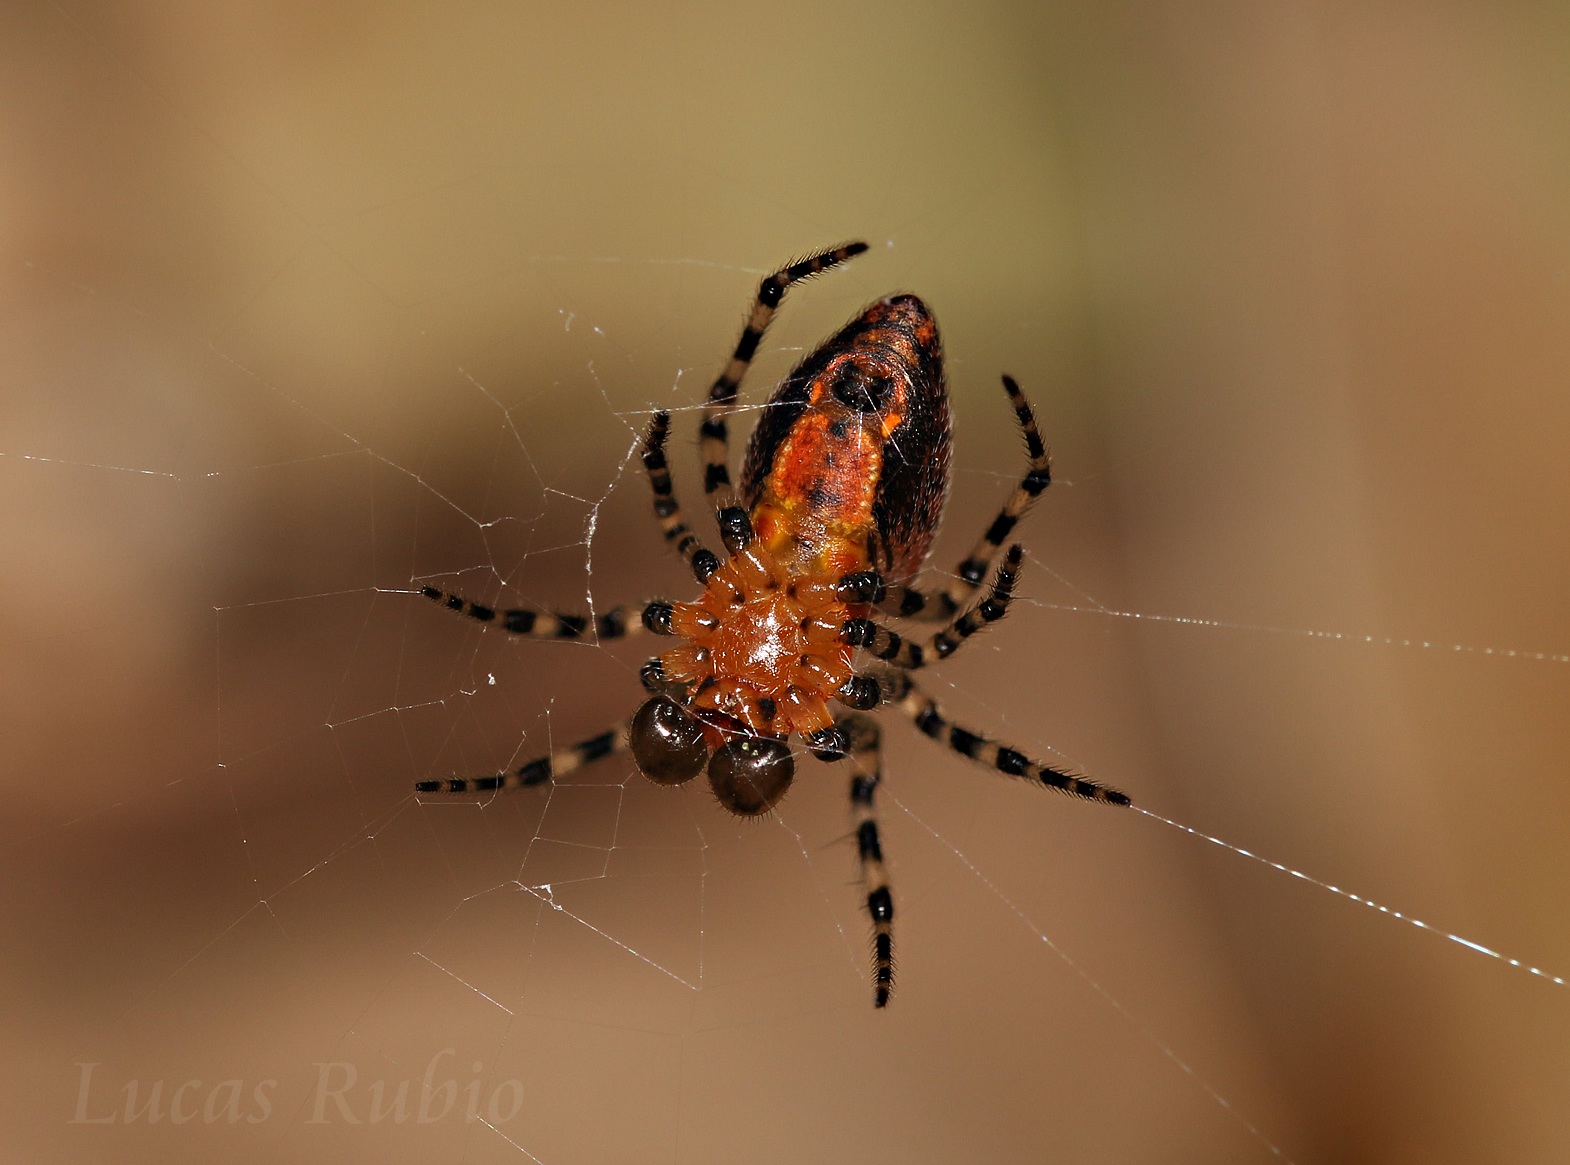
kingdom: Animalia
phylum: Arthropoda
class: Arachnida
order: Araneae
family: Araneidae
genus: Alpaida
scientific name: Alpaida gallardoi
